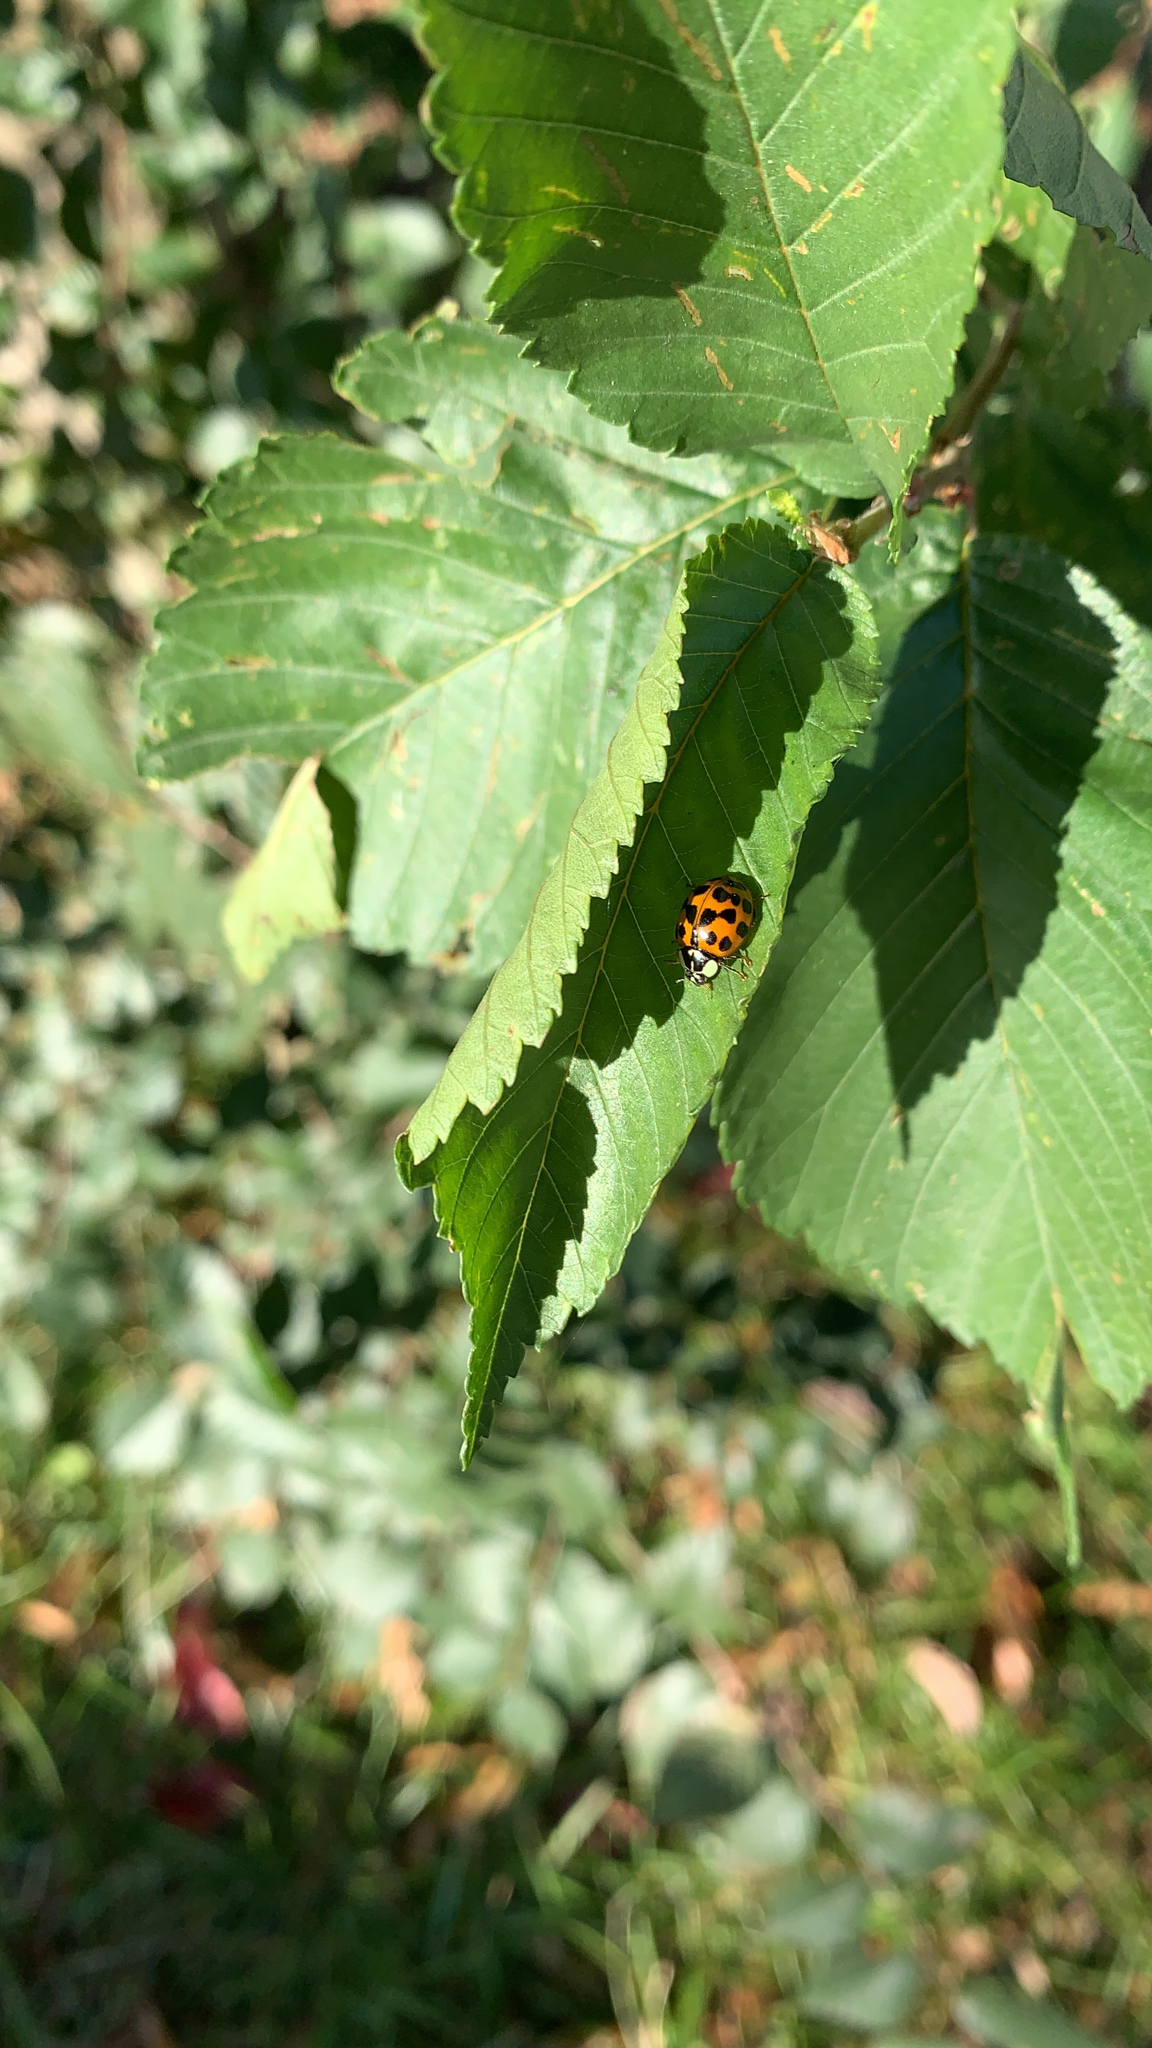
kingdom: Animalia
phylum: Arthropoda
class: Insecta
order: Coleoptera
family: Coccinellidae
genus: Harmonia
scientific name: Harmonia axyridis
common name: Harlequin ladybird
